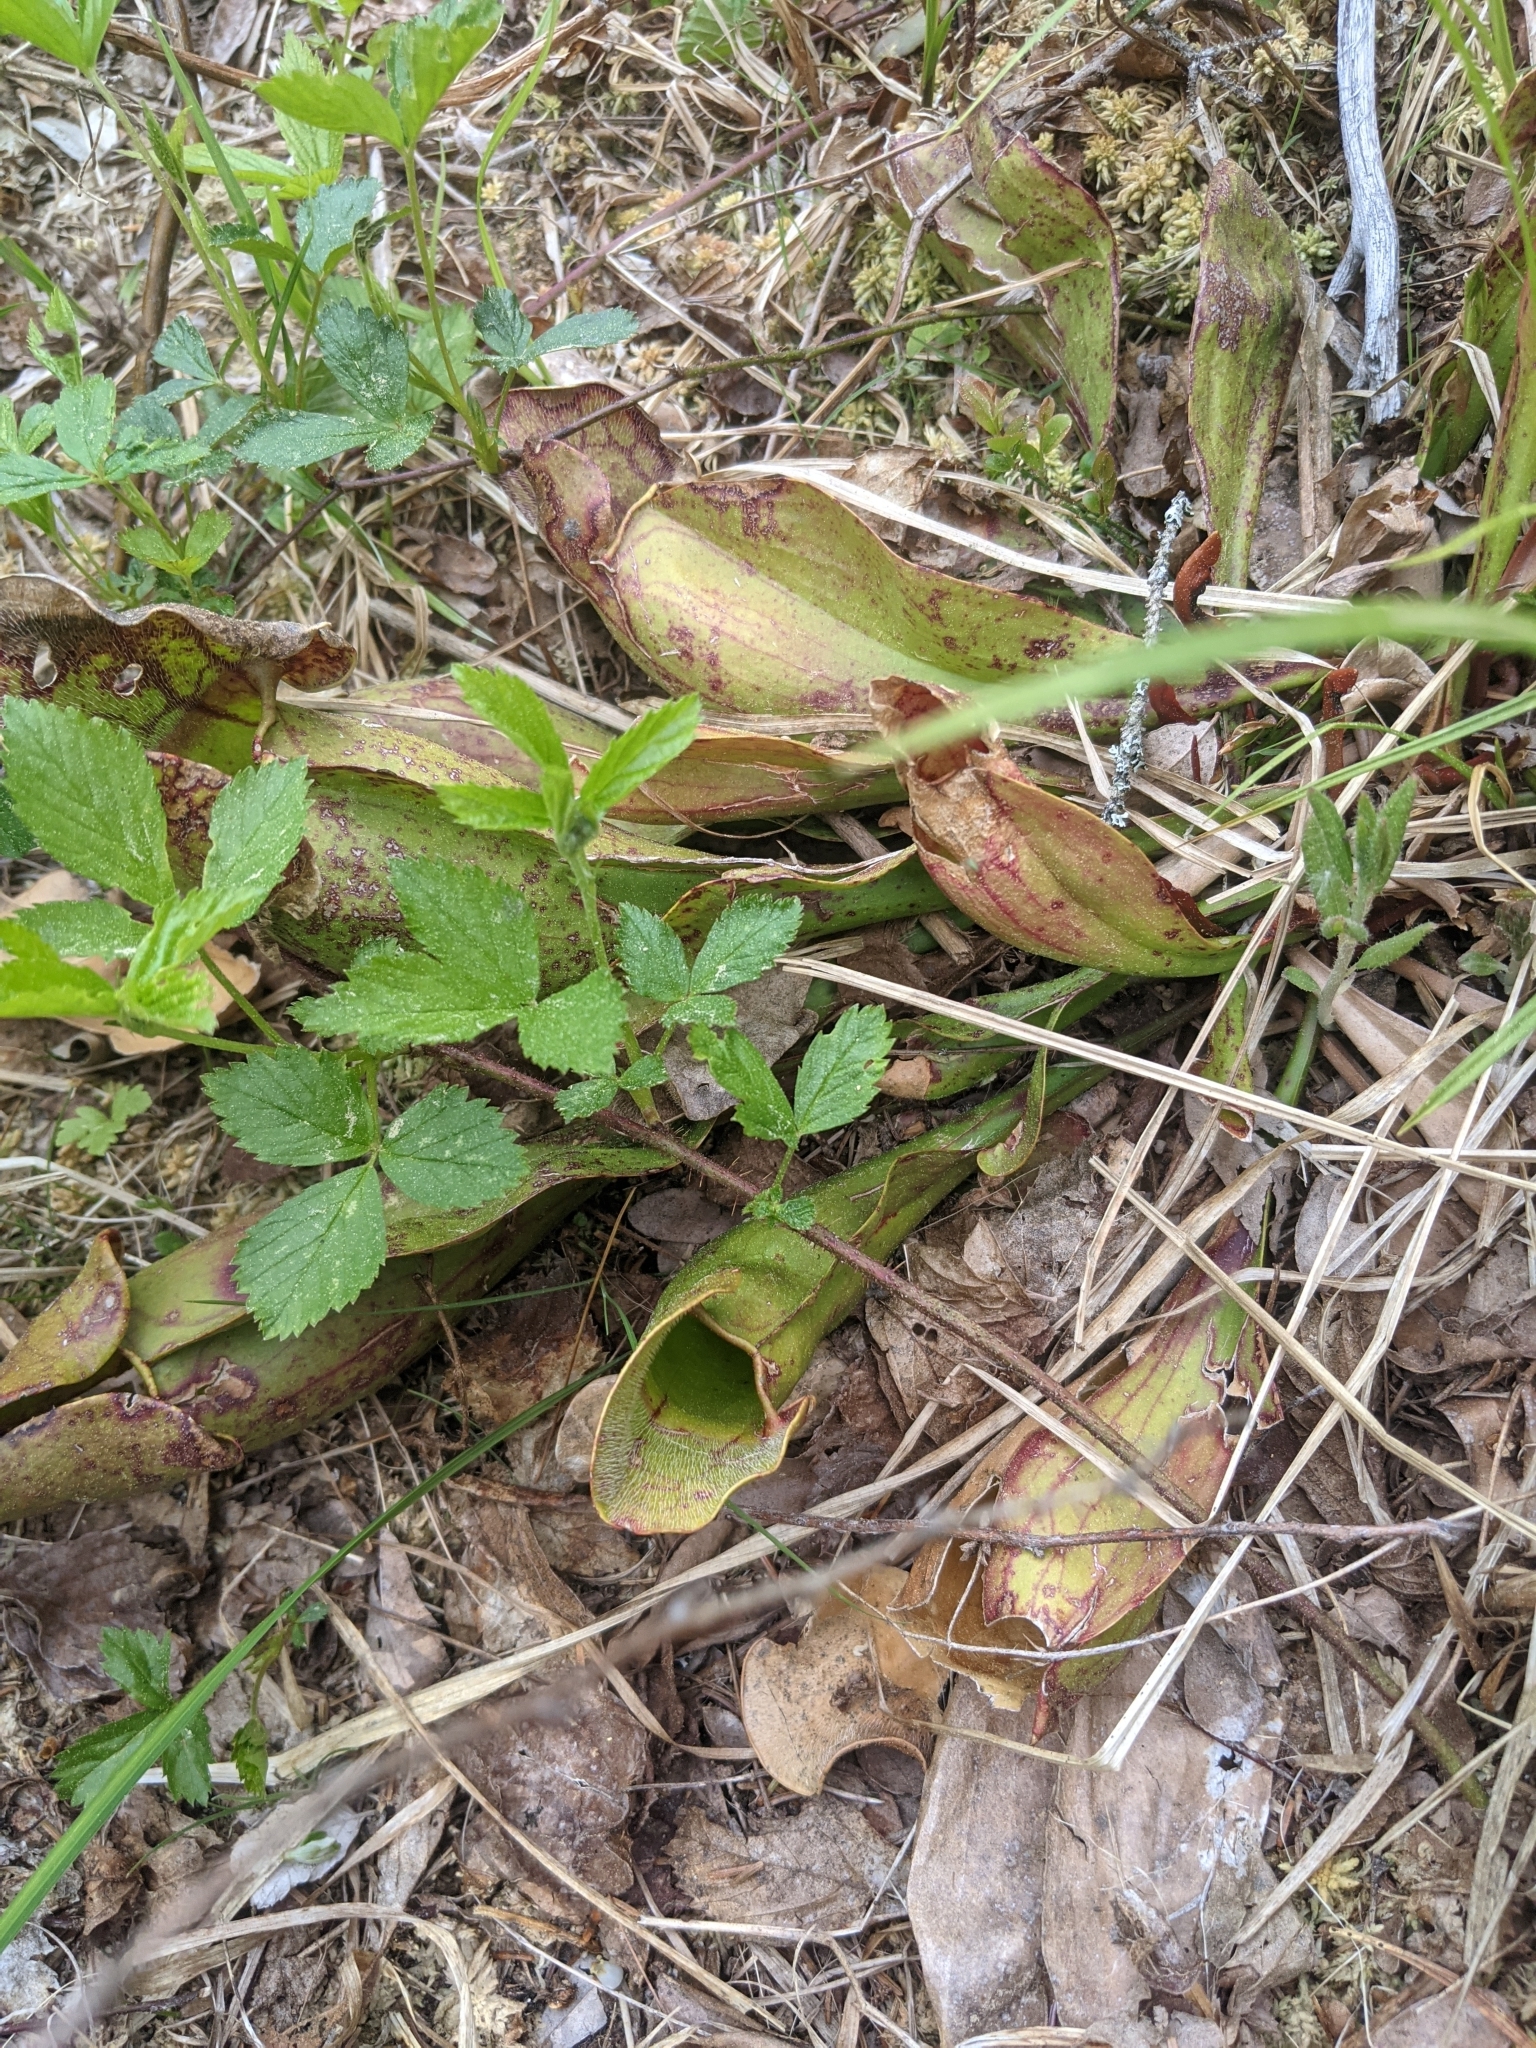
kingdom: Plantae
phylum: Tracheophyta
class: Magnoliopsida
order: Ericales
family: Sarraceniaceae
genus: Sarracenia
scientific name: Sarracenia purpurea
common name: Pitcherplant
